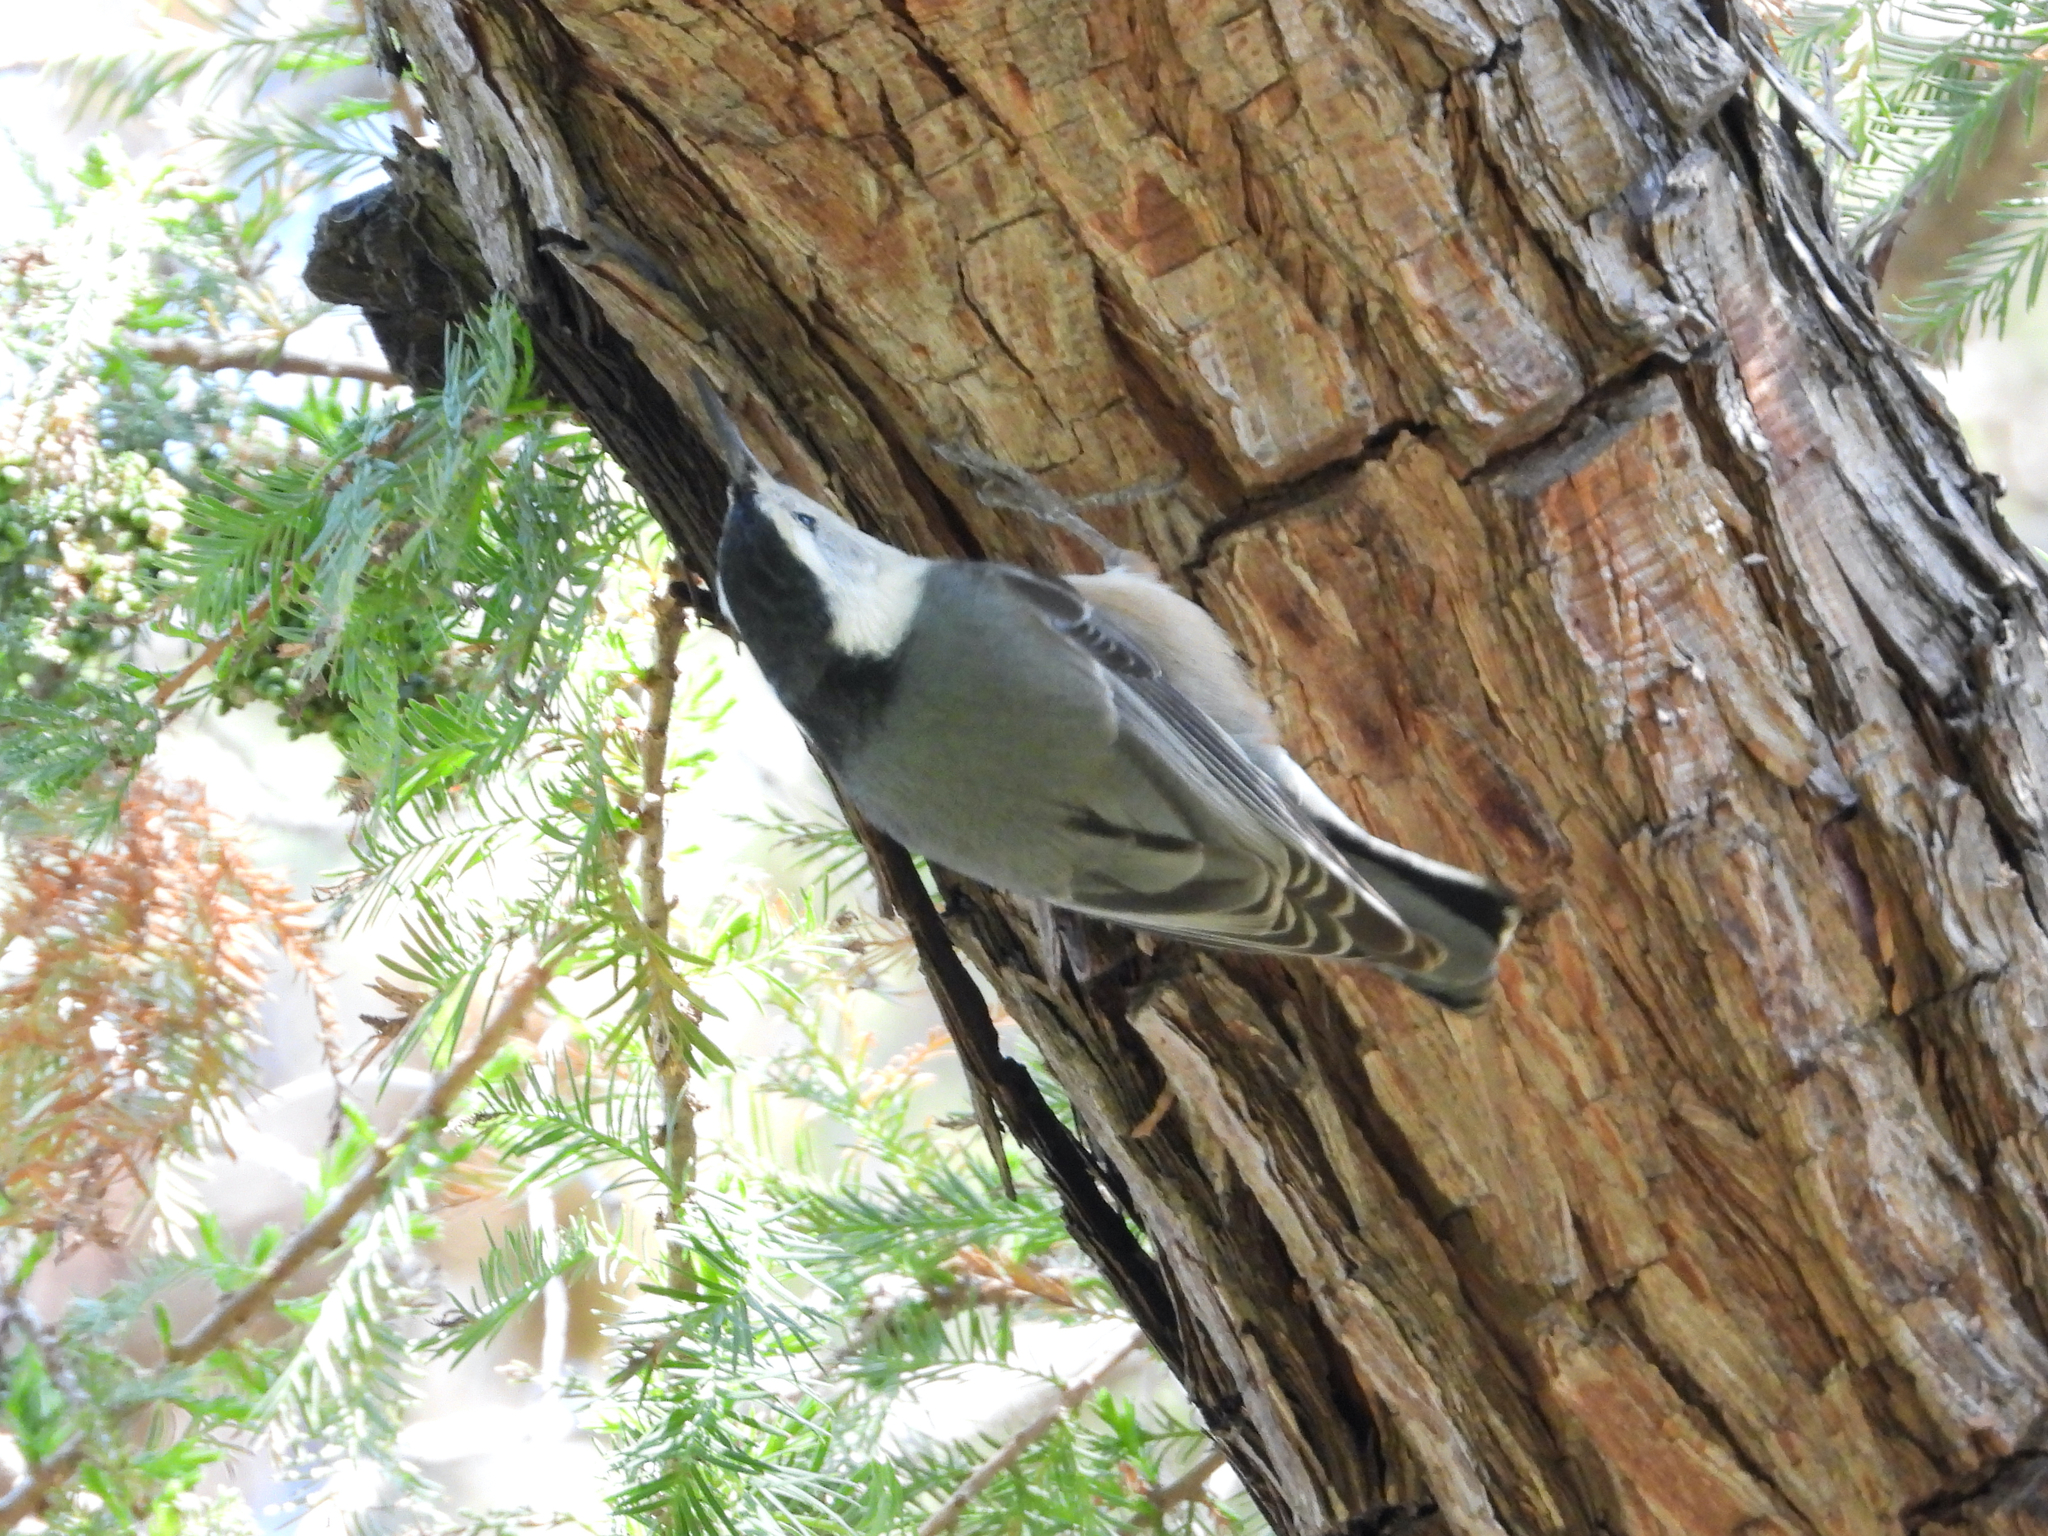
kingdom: Animalia
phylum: Chordata
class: Aves
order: Passeriformes
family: Sittidae
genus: Sitta
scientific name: Sitta carolinensis
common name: White-breasted nuthatch
